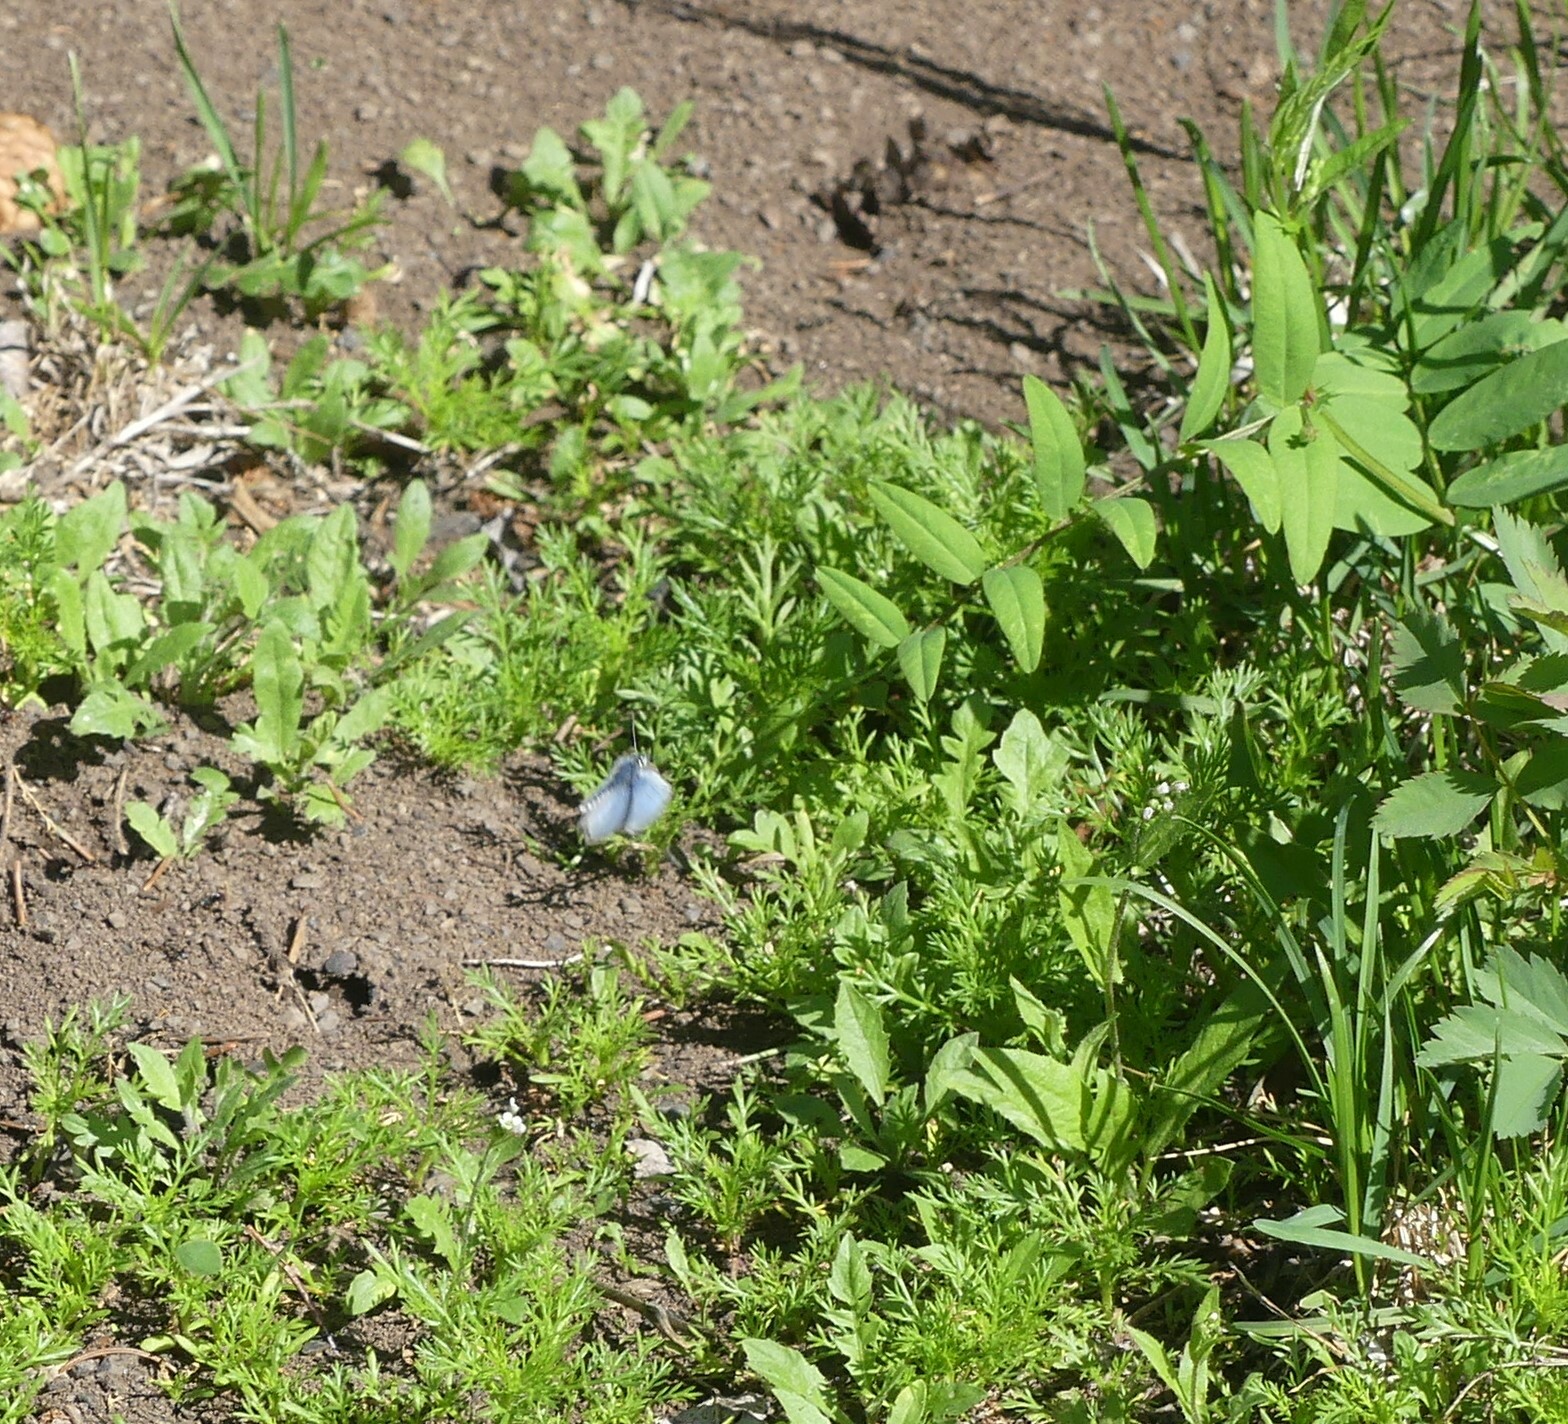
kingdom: Animalia
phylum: Arthropoda
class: Insecta
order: Lepidoptera
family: Lycaenidae
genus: Glaucopsyche
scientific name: Glaucopsyche lygdamus
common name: Silvery blue
